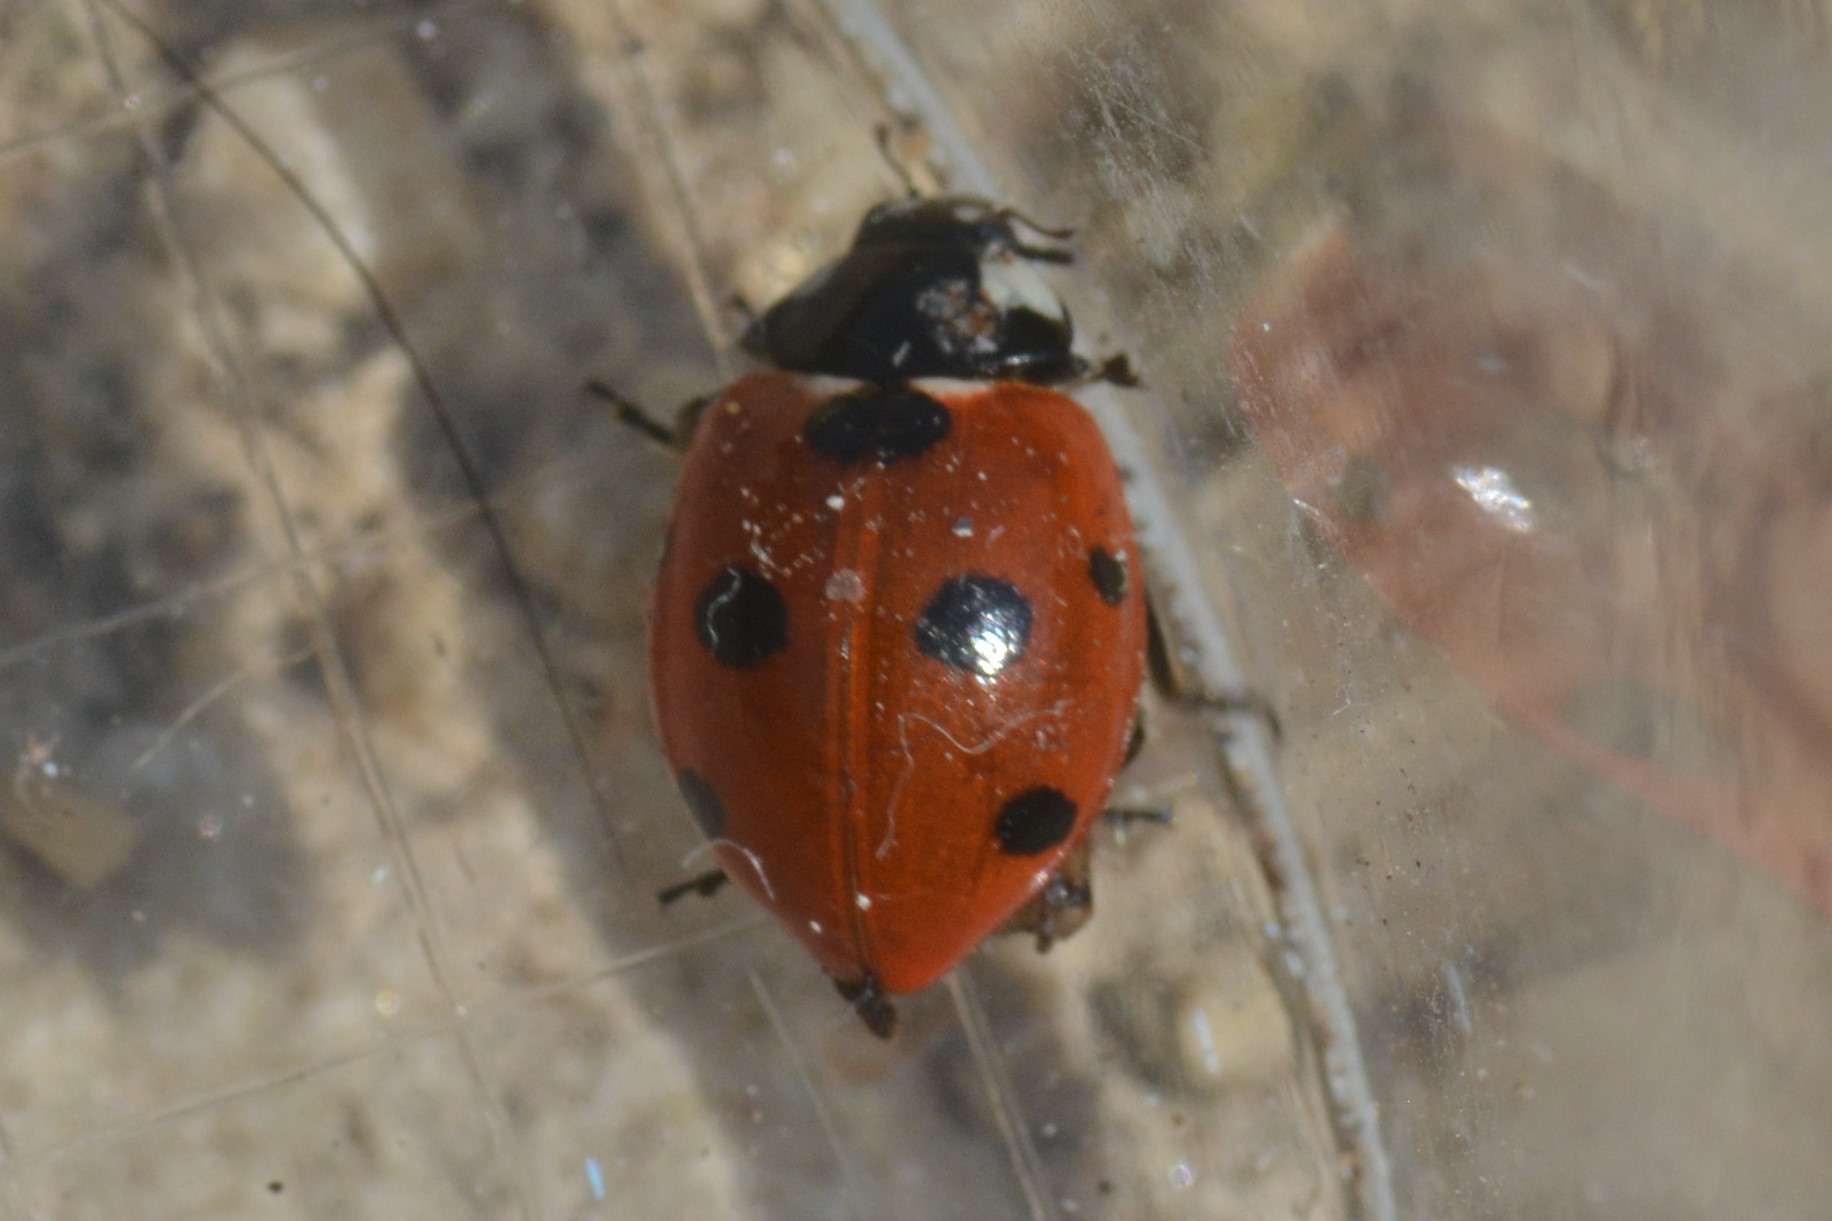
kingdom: Animalia
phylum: Arthropoda
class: Insecta
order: Coleoptera
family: Coccinellidae
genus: Coccinella
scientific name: Coccinella septempunctata
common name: Sevenspotted lady beetle
